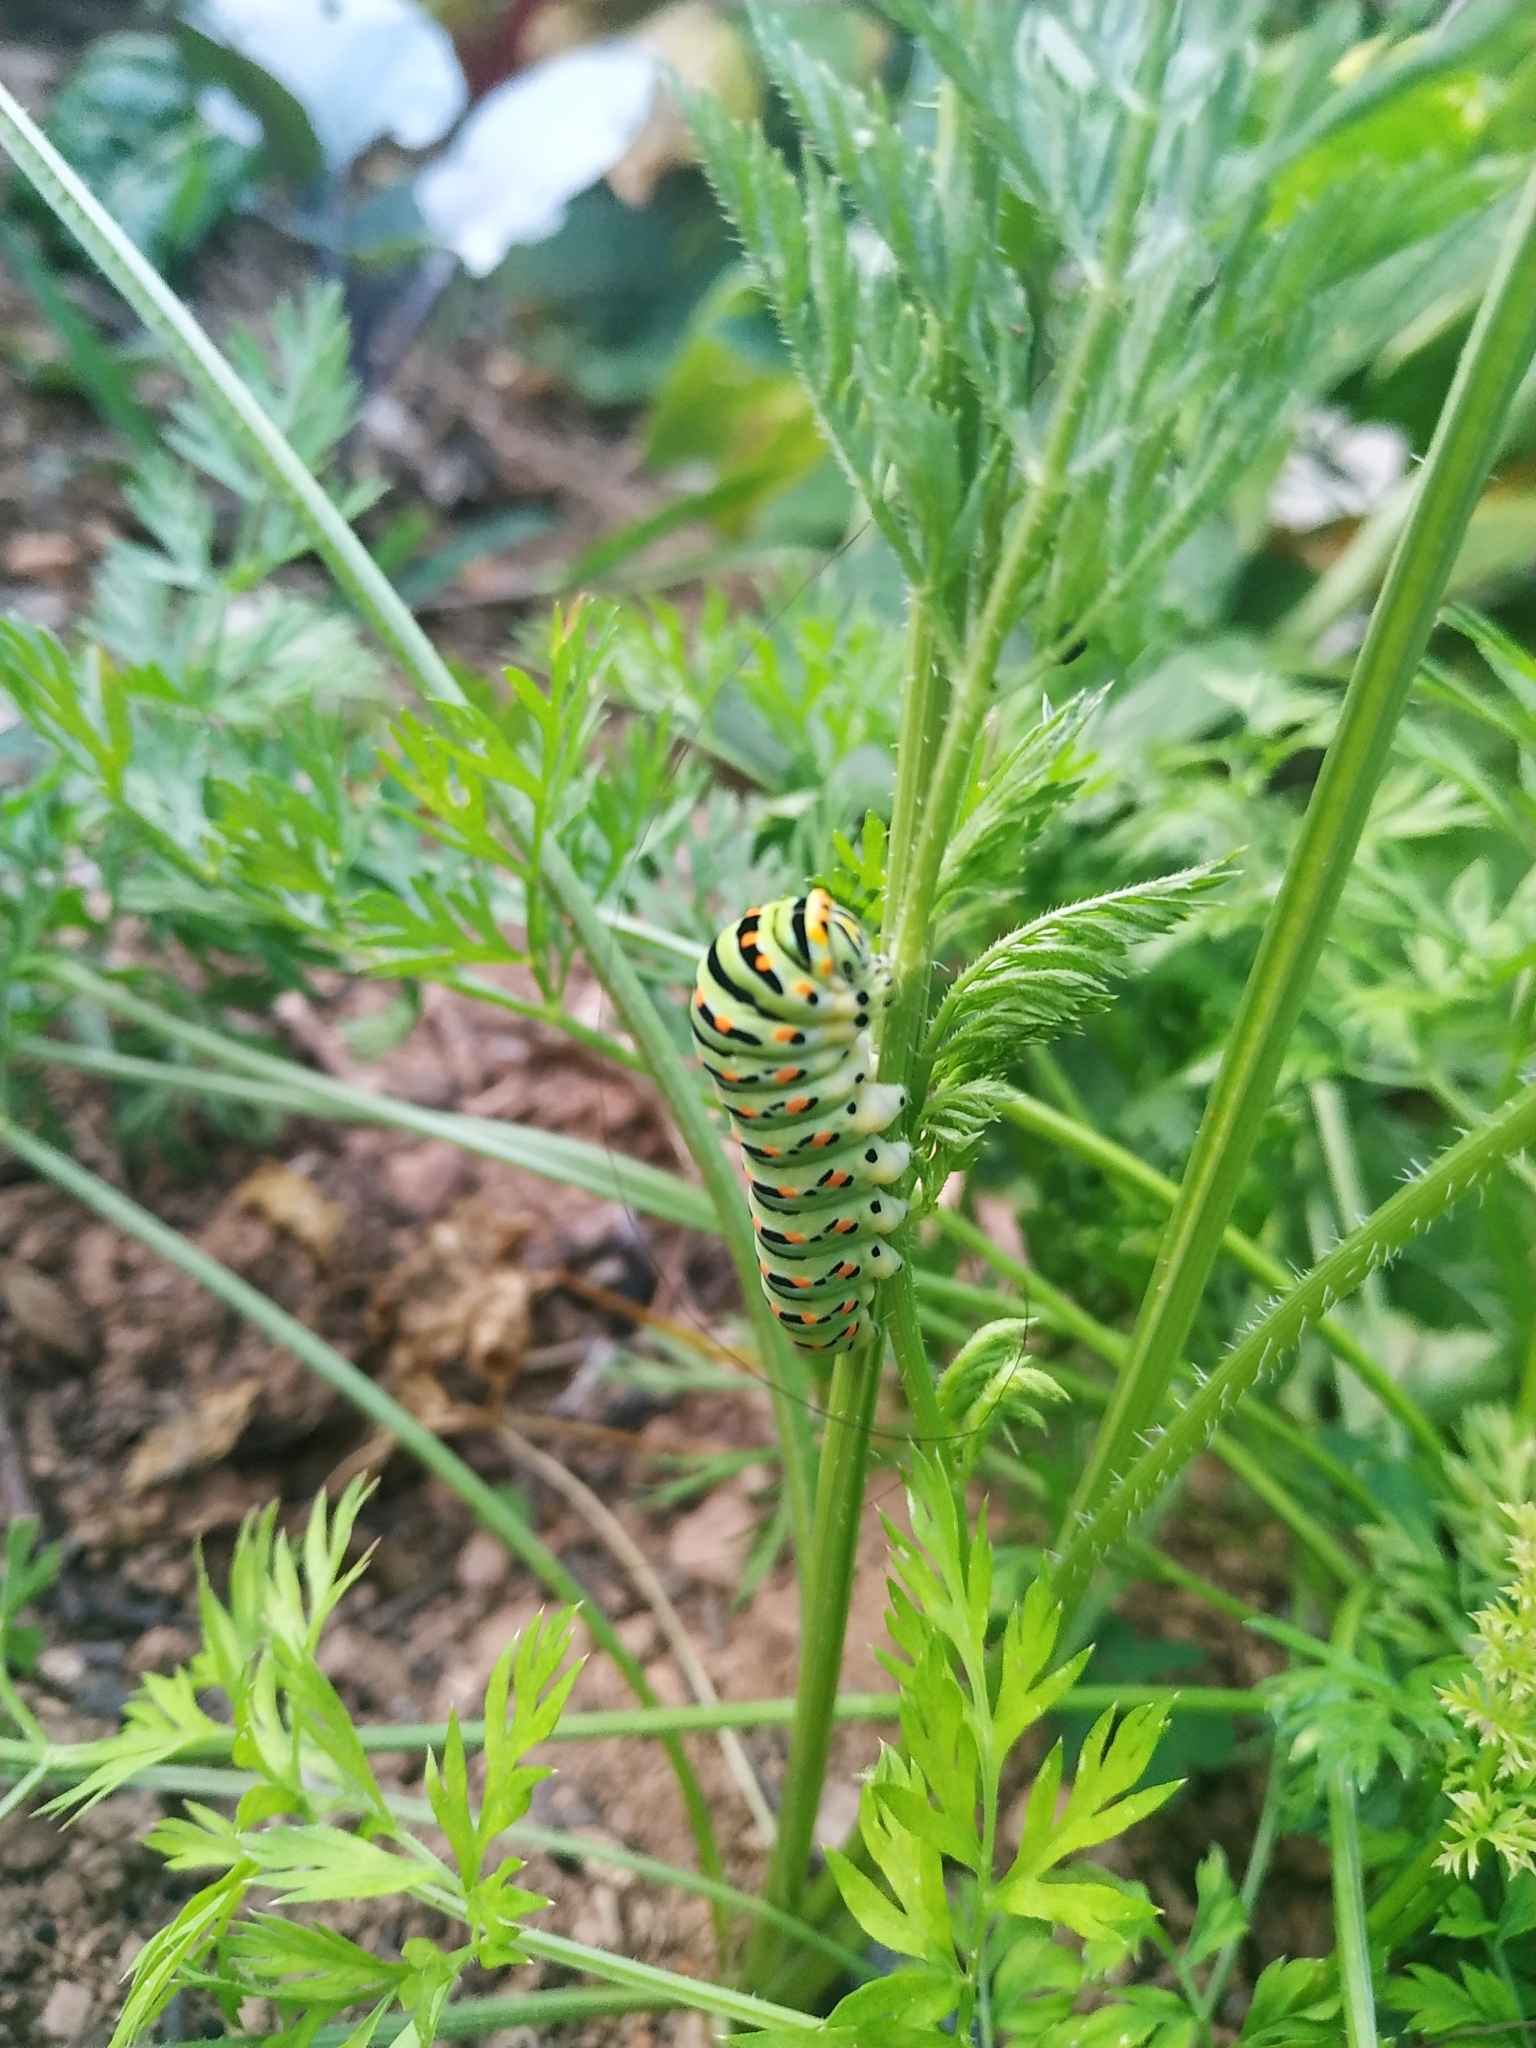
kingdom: Animalia
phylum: Arthropoda
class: Insecta
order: Lepidoptera
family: Papilionidae
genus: Papilio
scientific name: Papilio machaon
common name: Swallowtail
